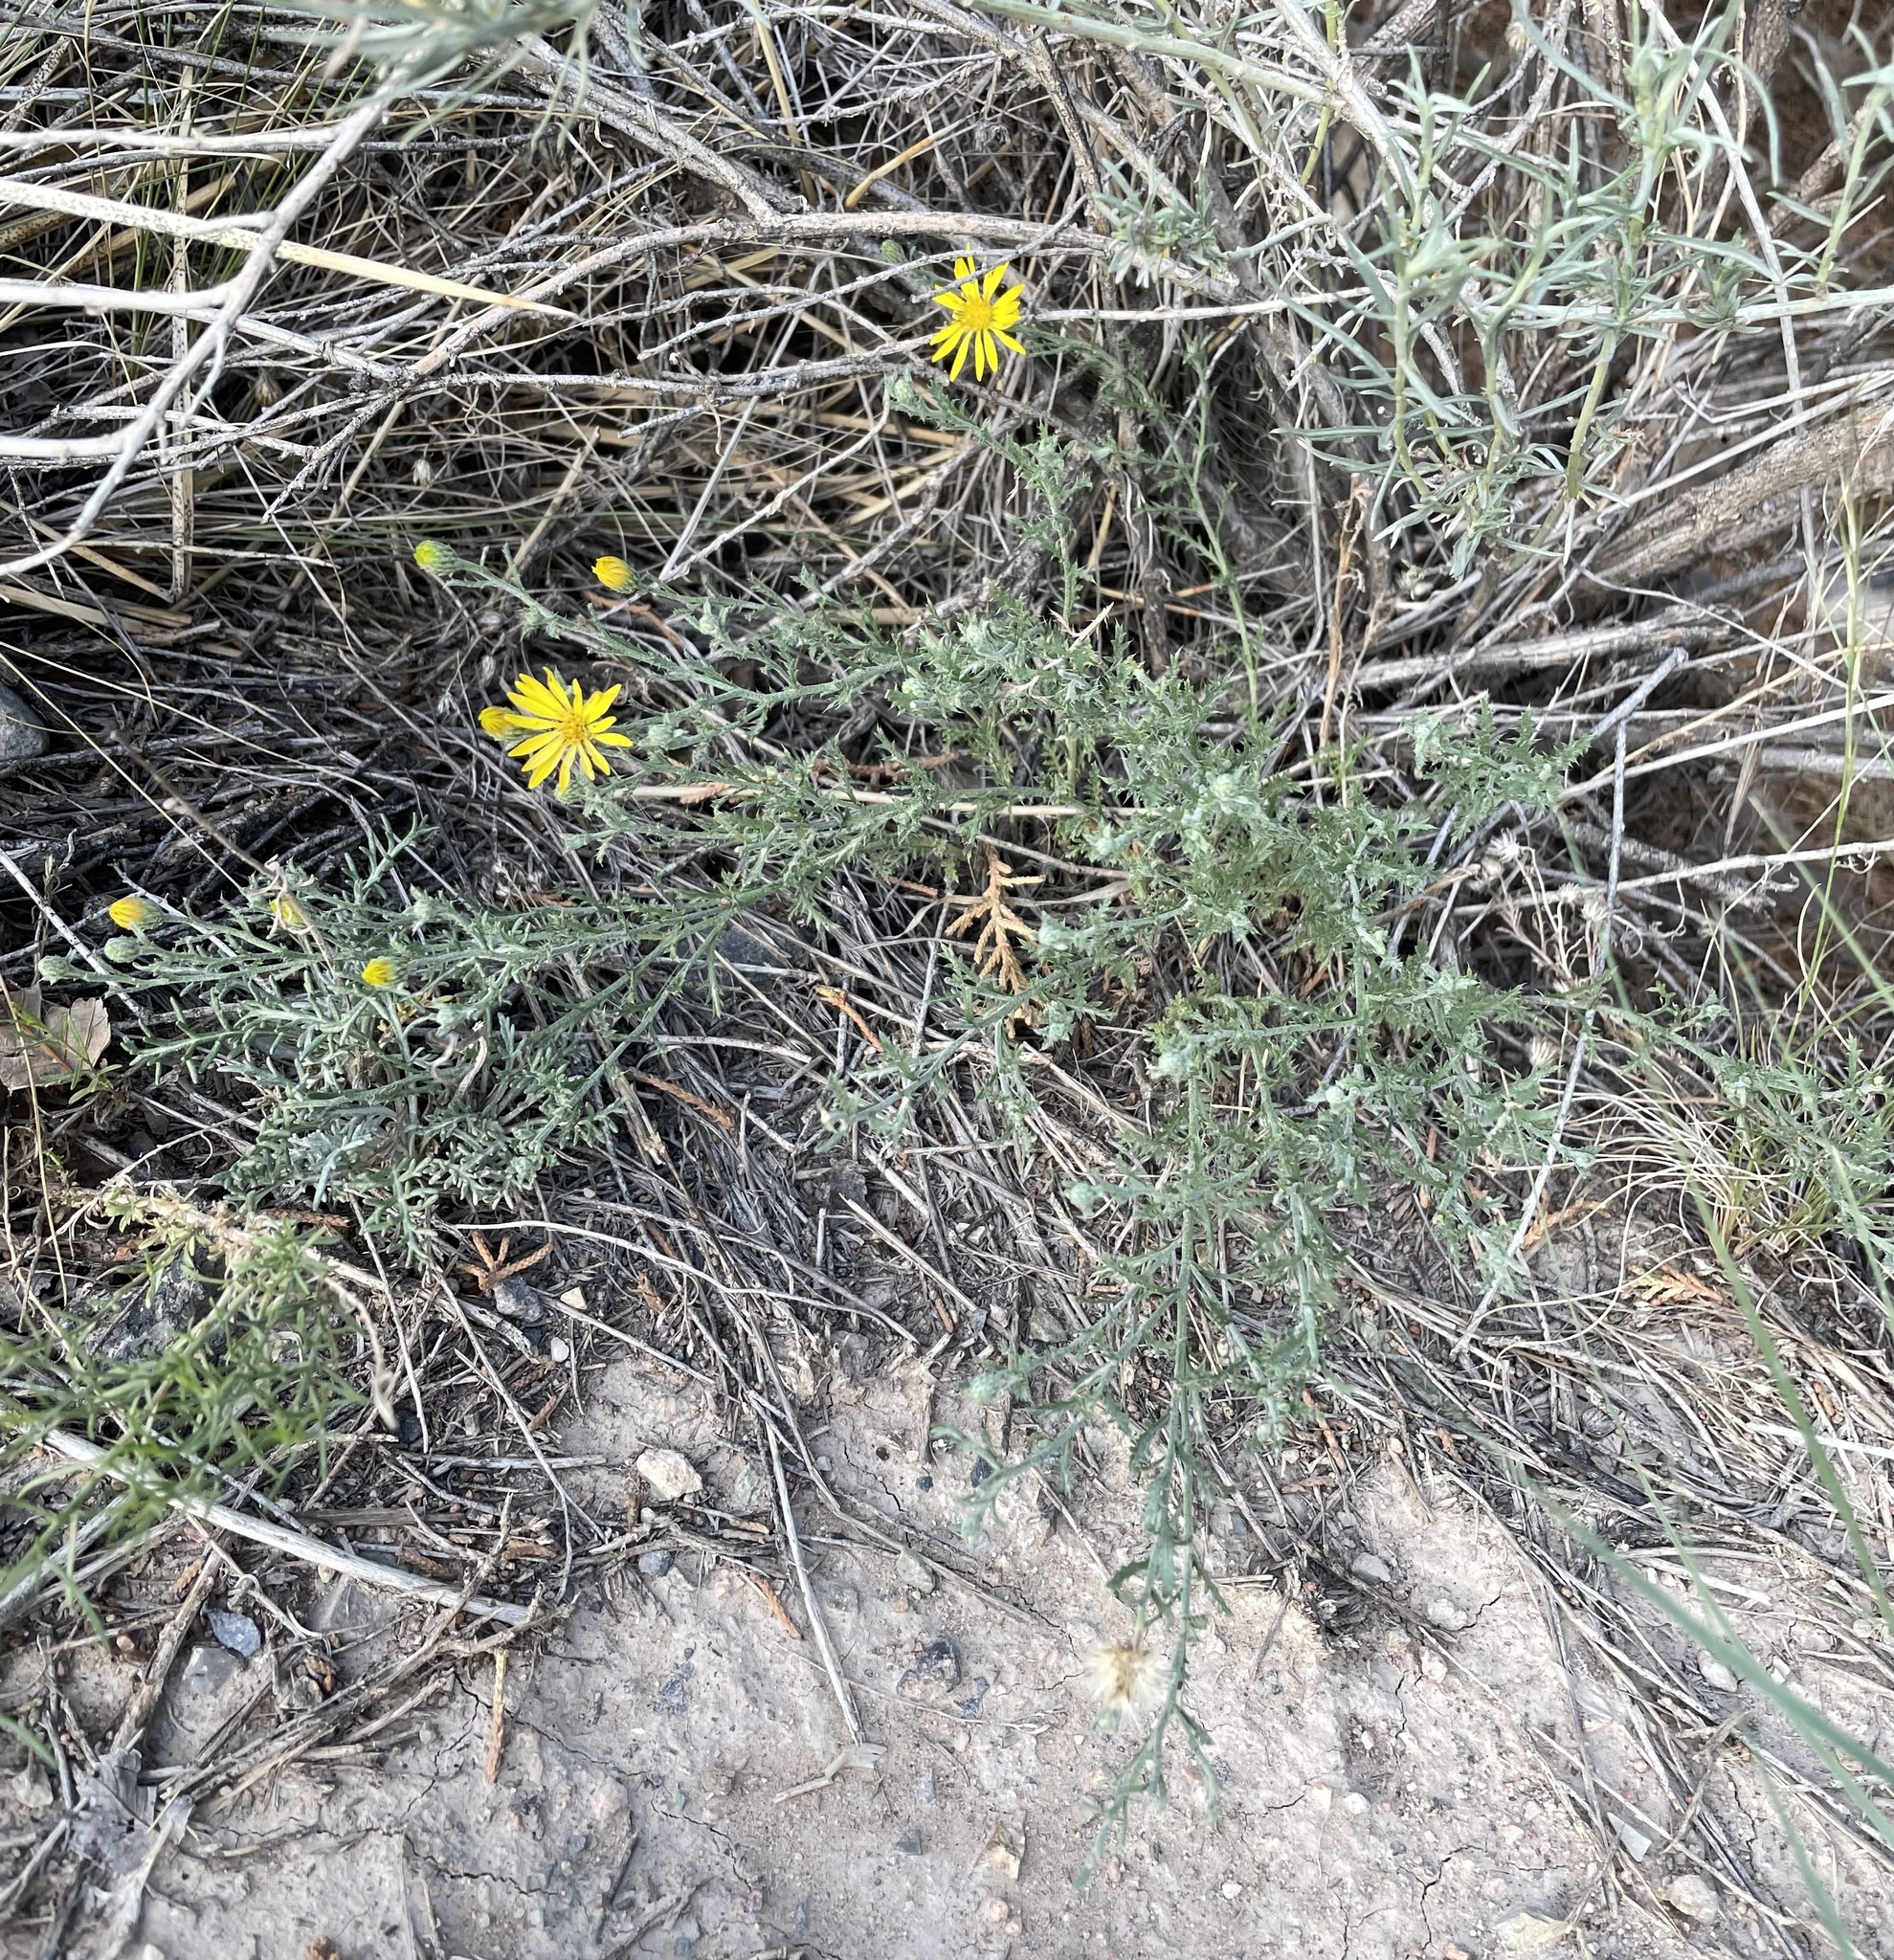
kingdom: Plantae
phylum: Tracheophyta
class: Magnoliopsida
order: Asterales
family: Asteraceae
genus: Xanthisma
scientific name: Xanthisma spinulosum
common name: Spiny goldenweed
